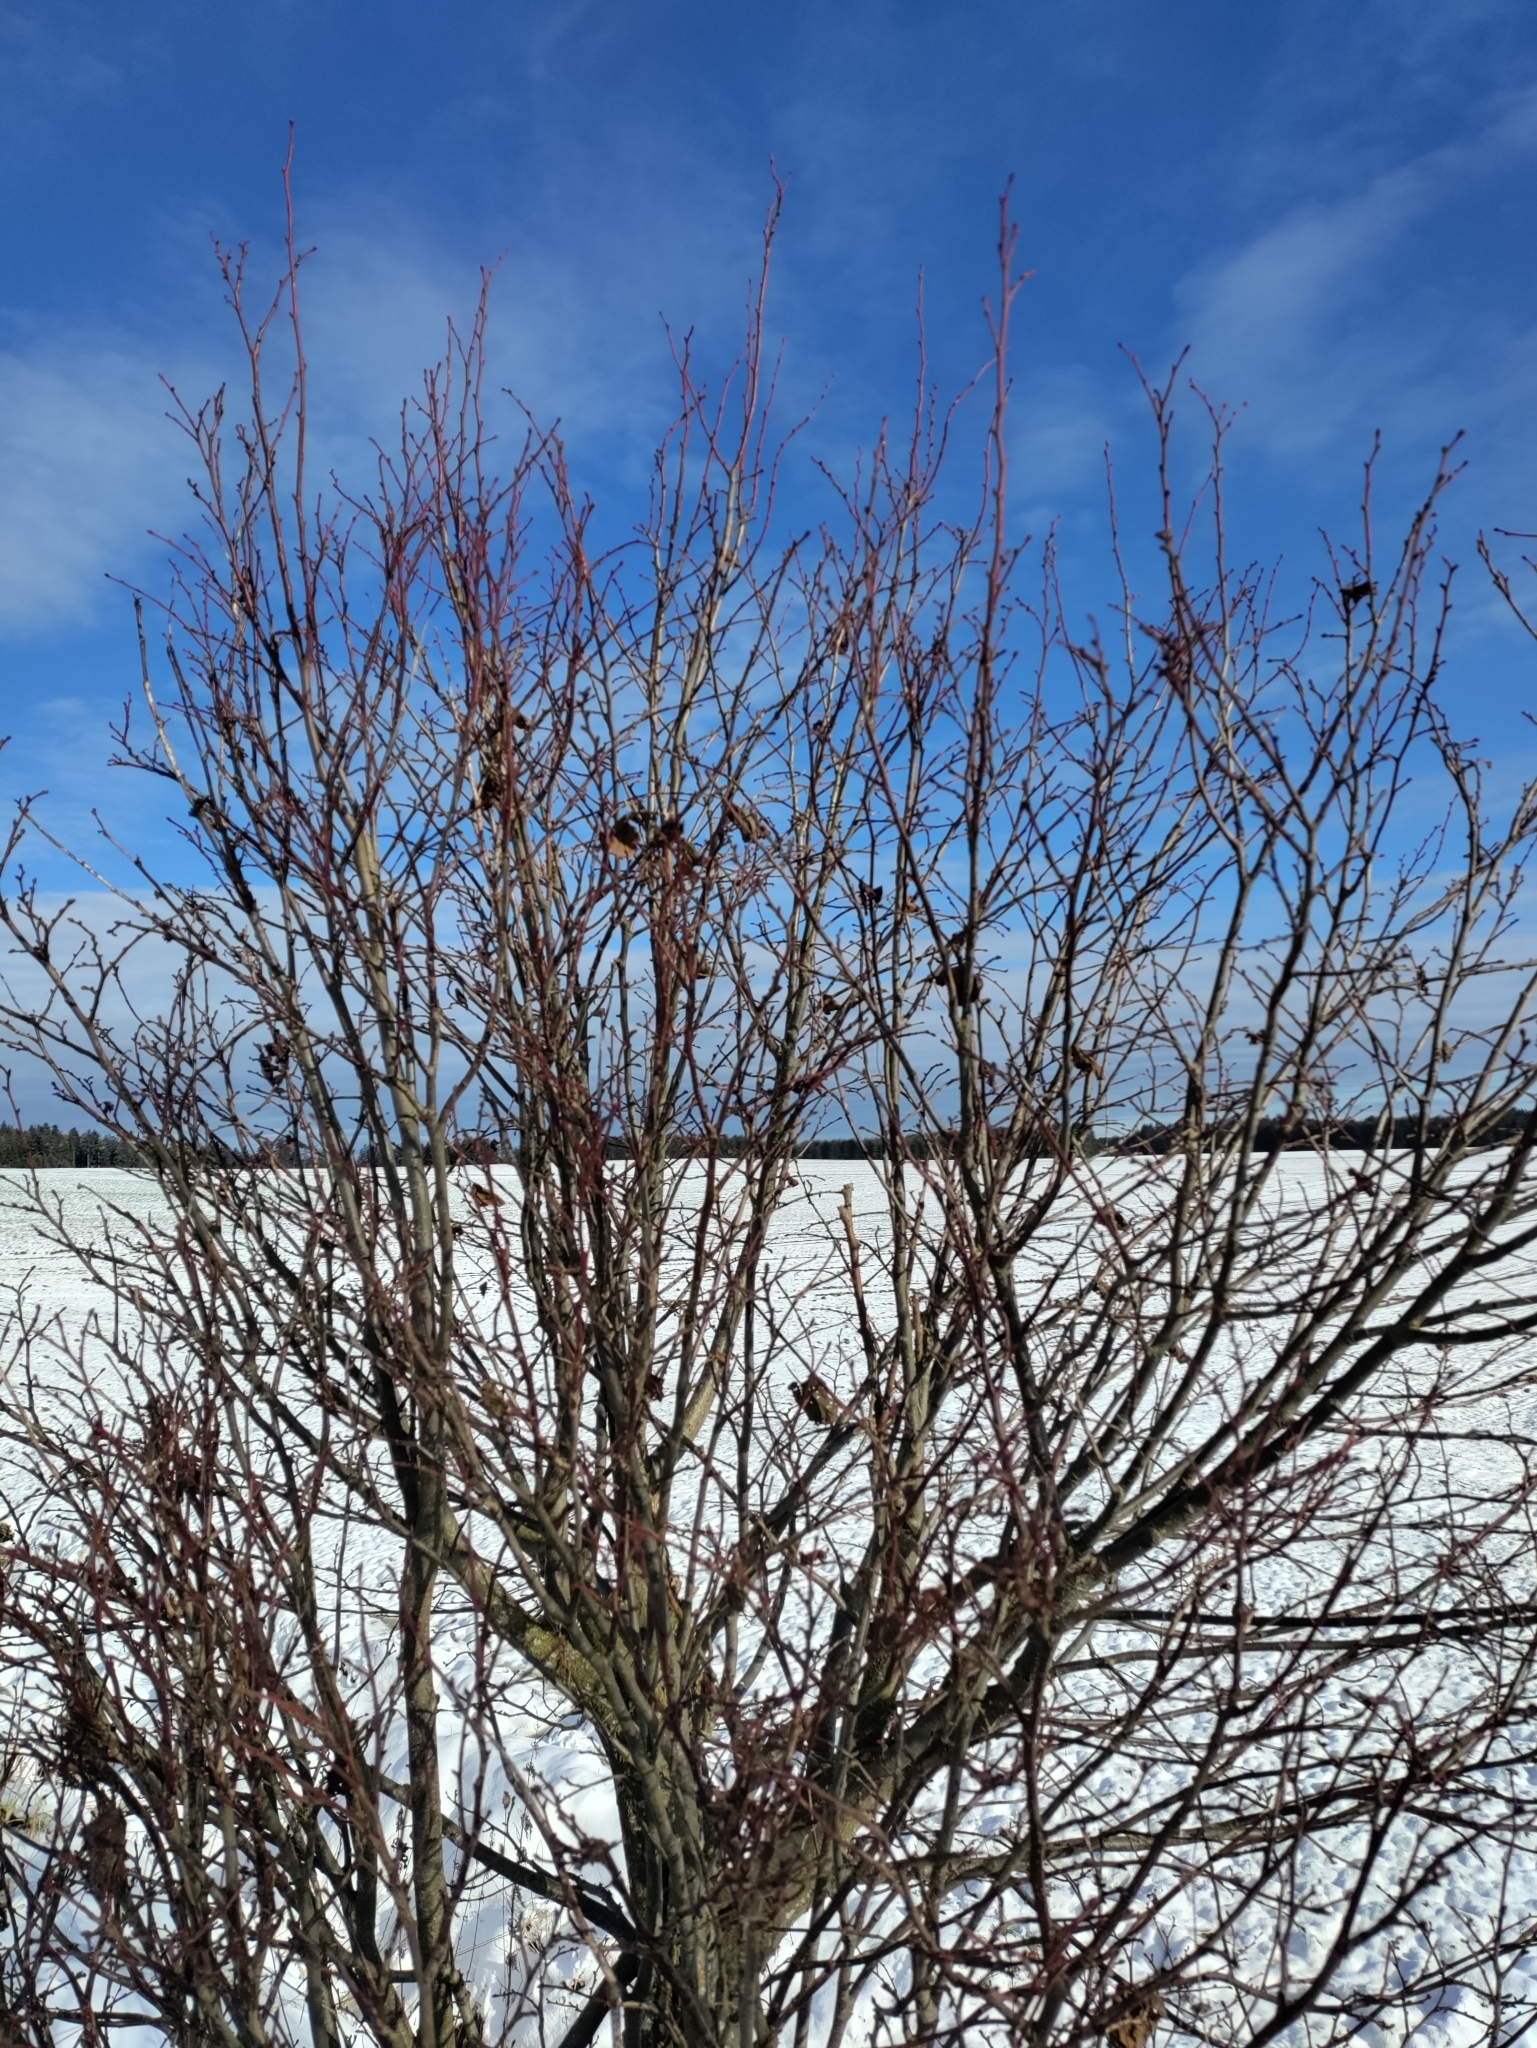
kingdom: Plantae
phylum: Tracheophyta
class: Magnoliopsida
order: Malvales
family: Malvaceae
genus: Tilia
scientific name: Tilia platyphyllos
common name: Large-leaved lime
